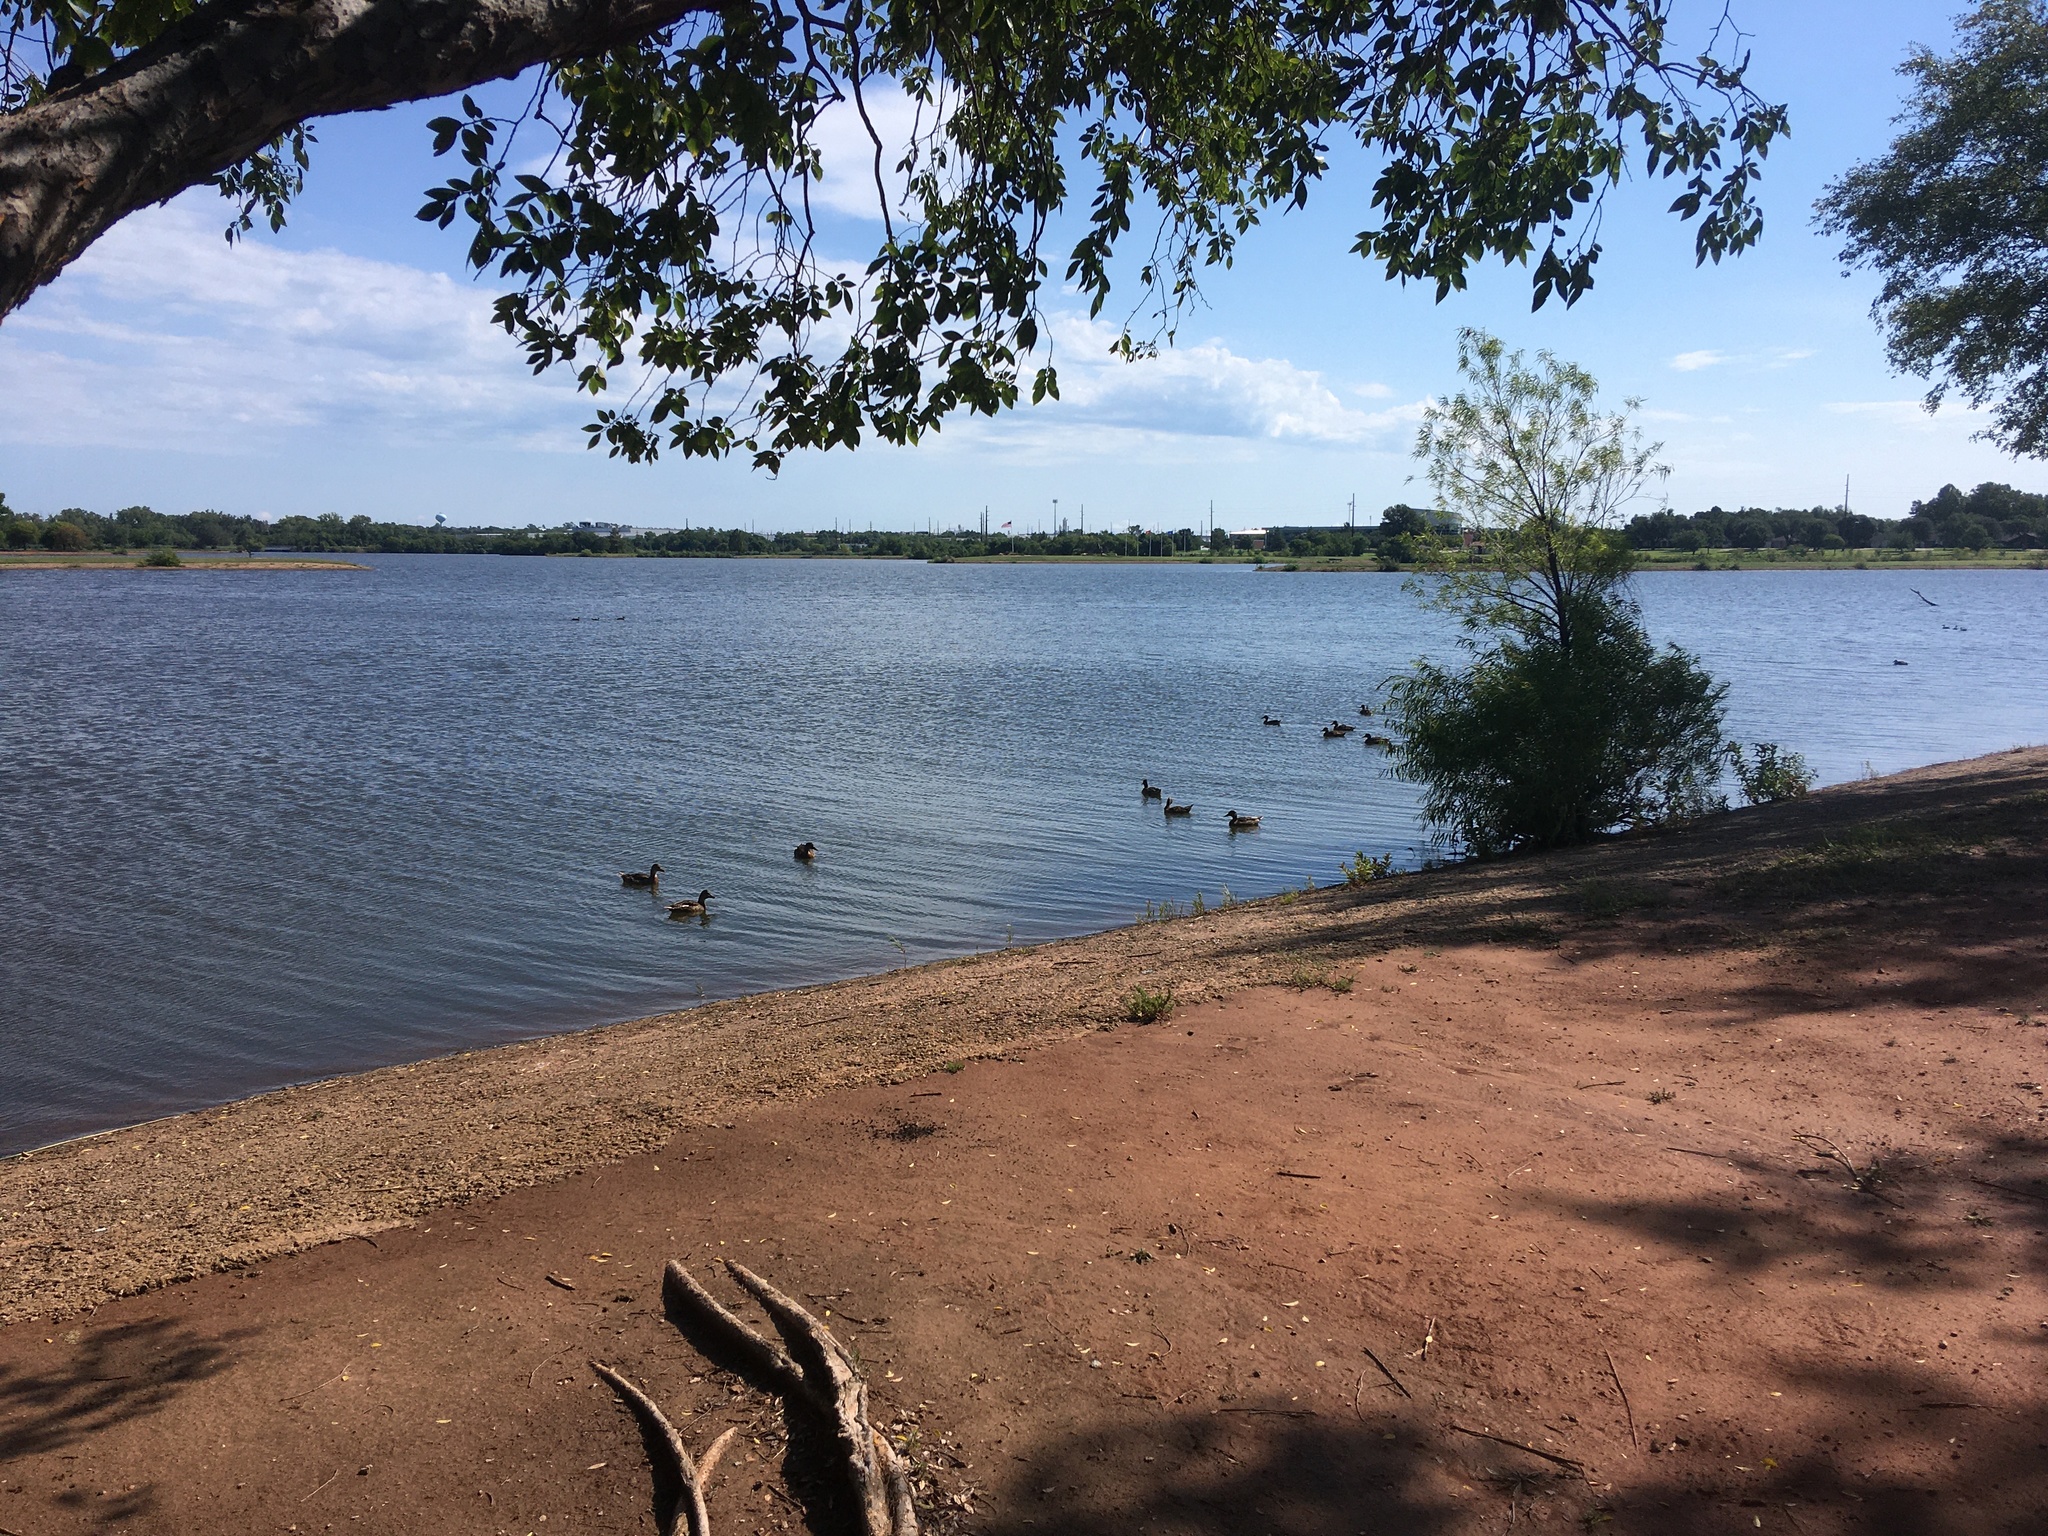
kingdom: Animalia
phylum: Chordata
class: Aves
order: Anseriformes
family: Anatidae
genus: Anas
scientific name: Anas platyrhynchos
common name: Mallard
